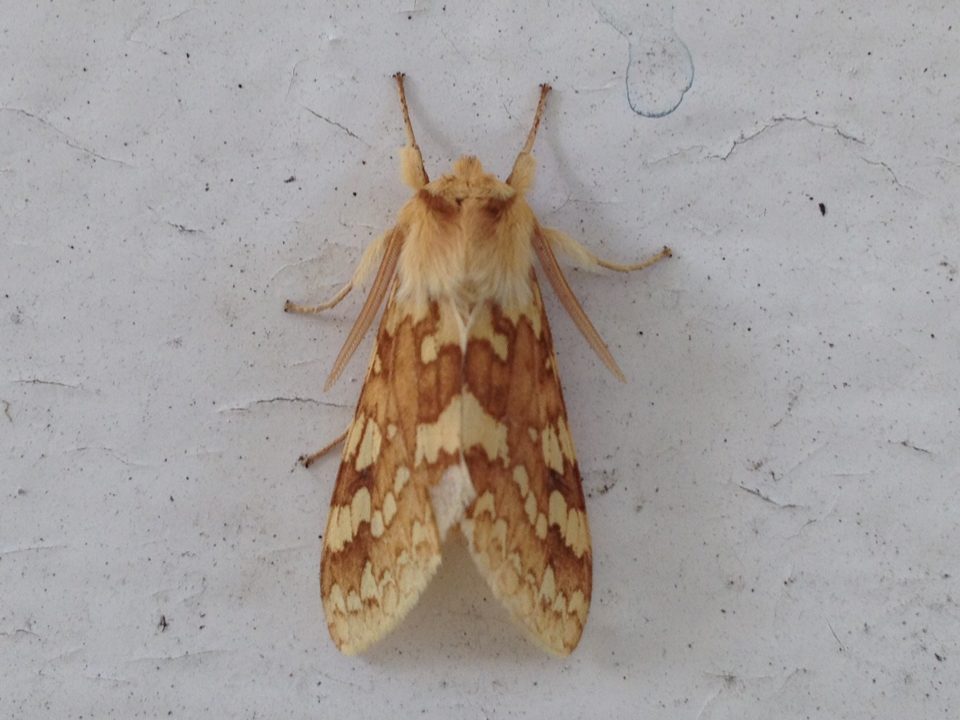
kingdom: Animalia
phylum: Arthropoda
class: Insecta
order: Lepidoptera
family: Erebidae
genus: Lophocampa
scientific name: Lophocampa maculata
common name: Spotted tussock moth
